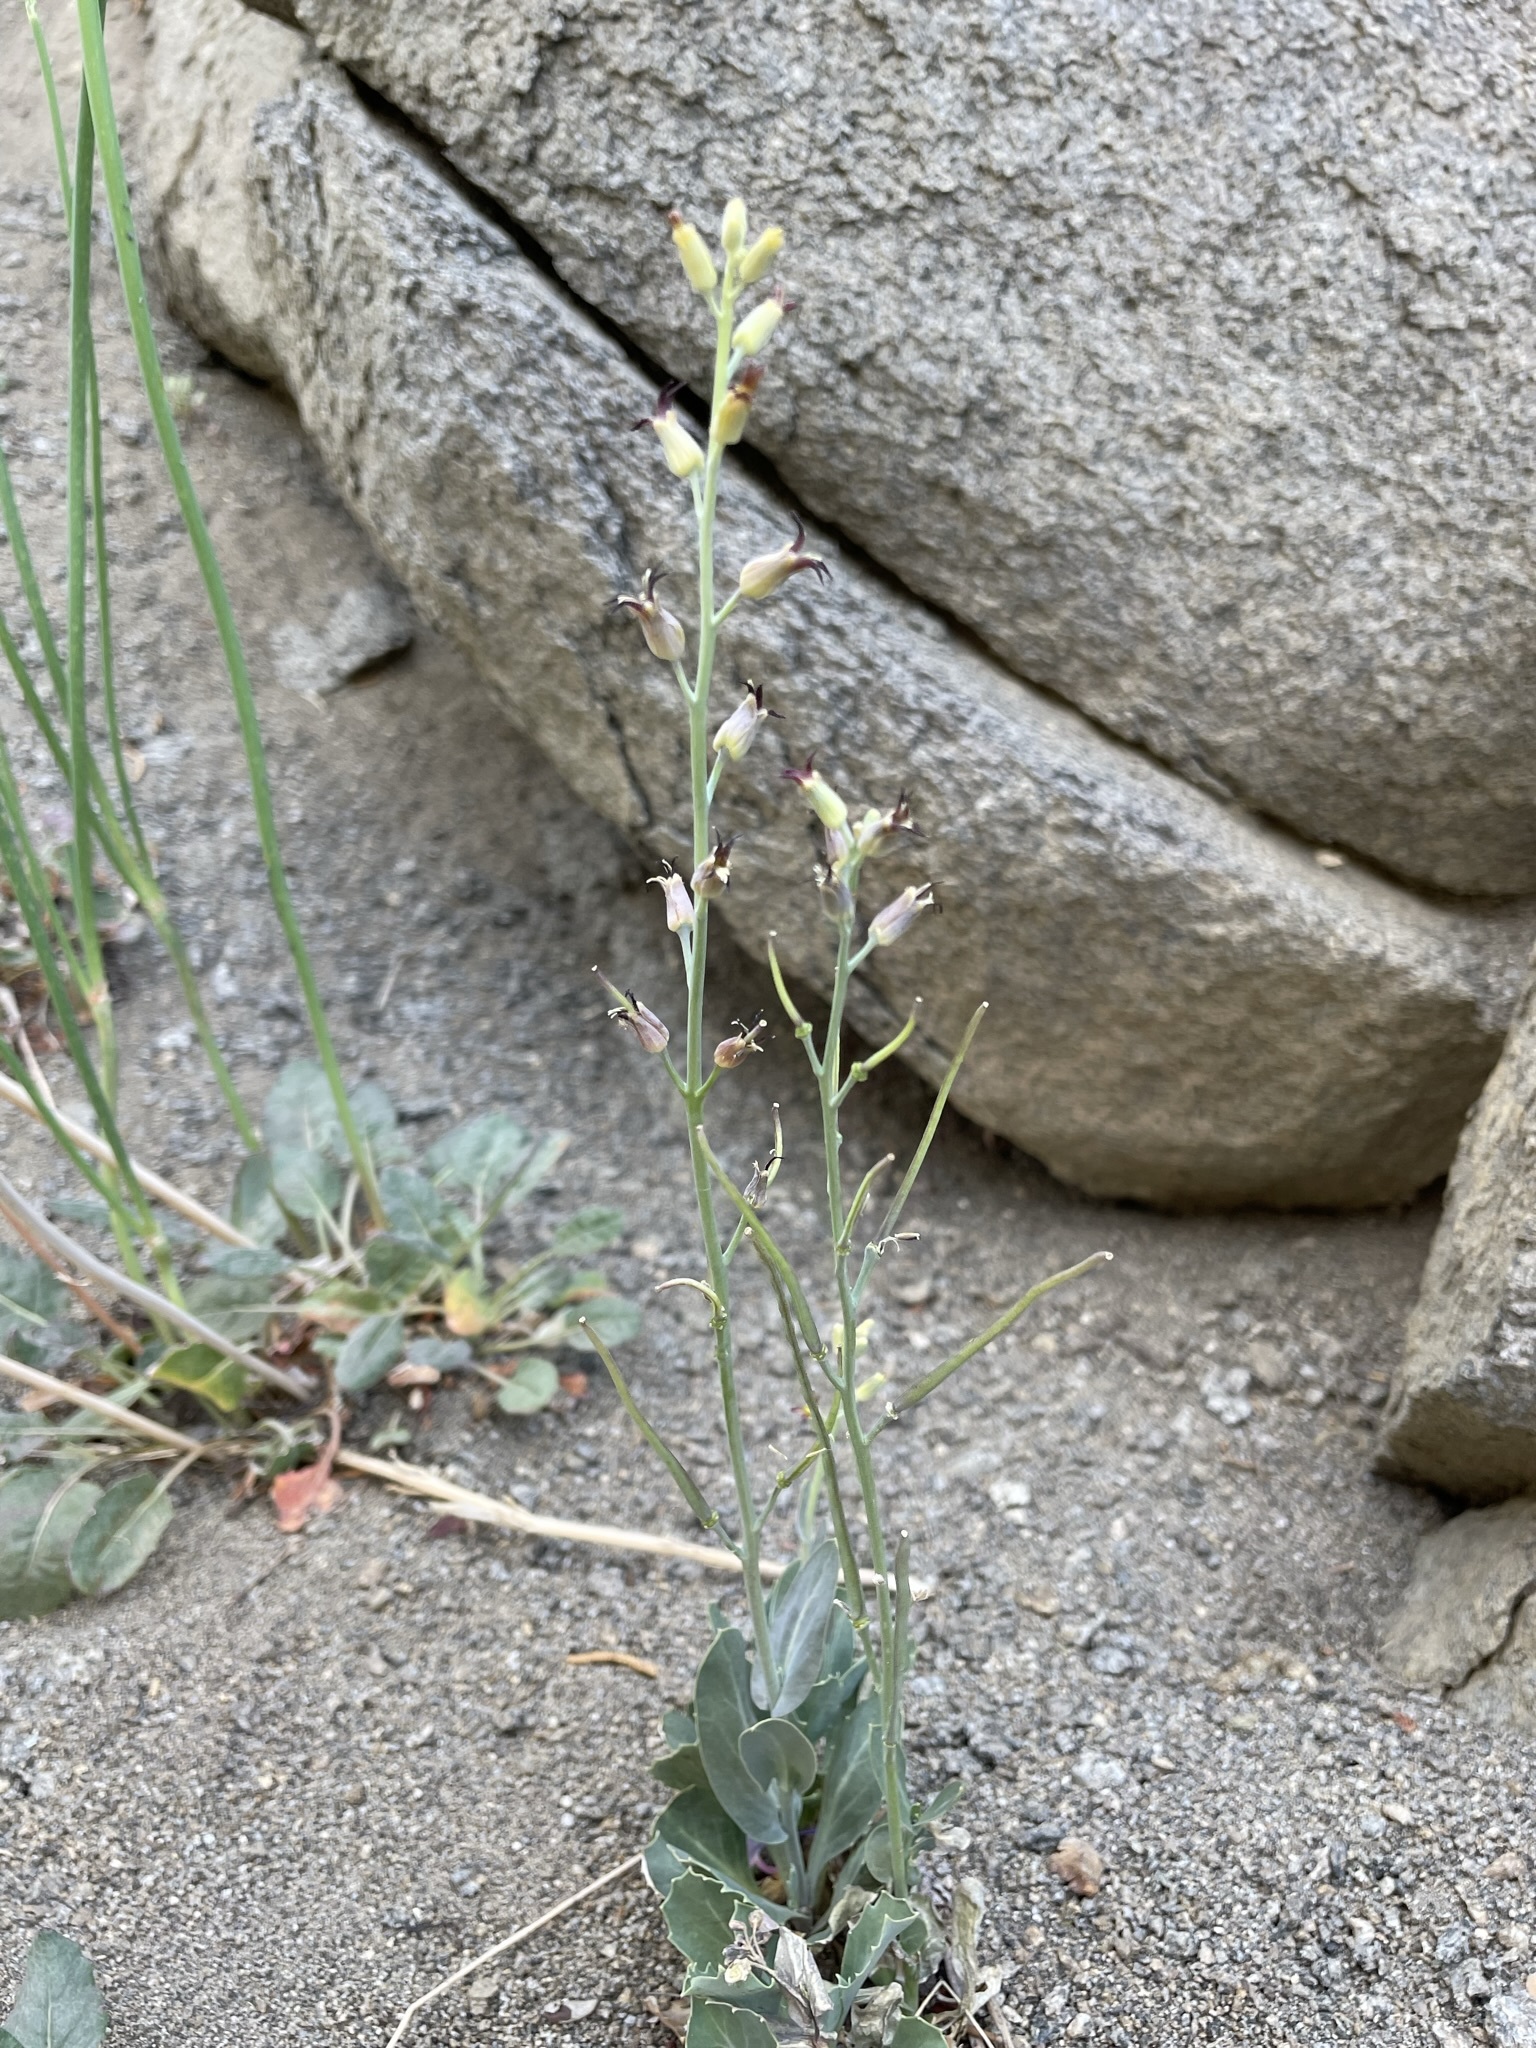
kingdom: Plantae
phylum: Tracheophyta
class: Magnoliopsida
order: Brassicales
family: Brassicaceae
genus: Streptanthus
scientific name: Streptanthus cordatus
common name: Heart-leaf jewel-flower
